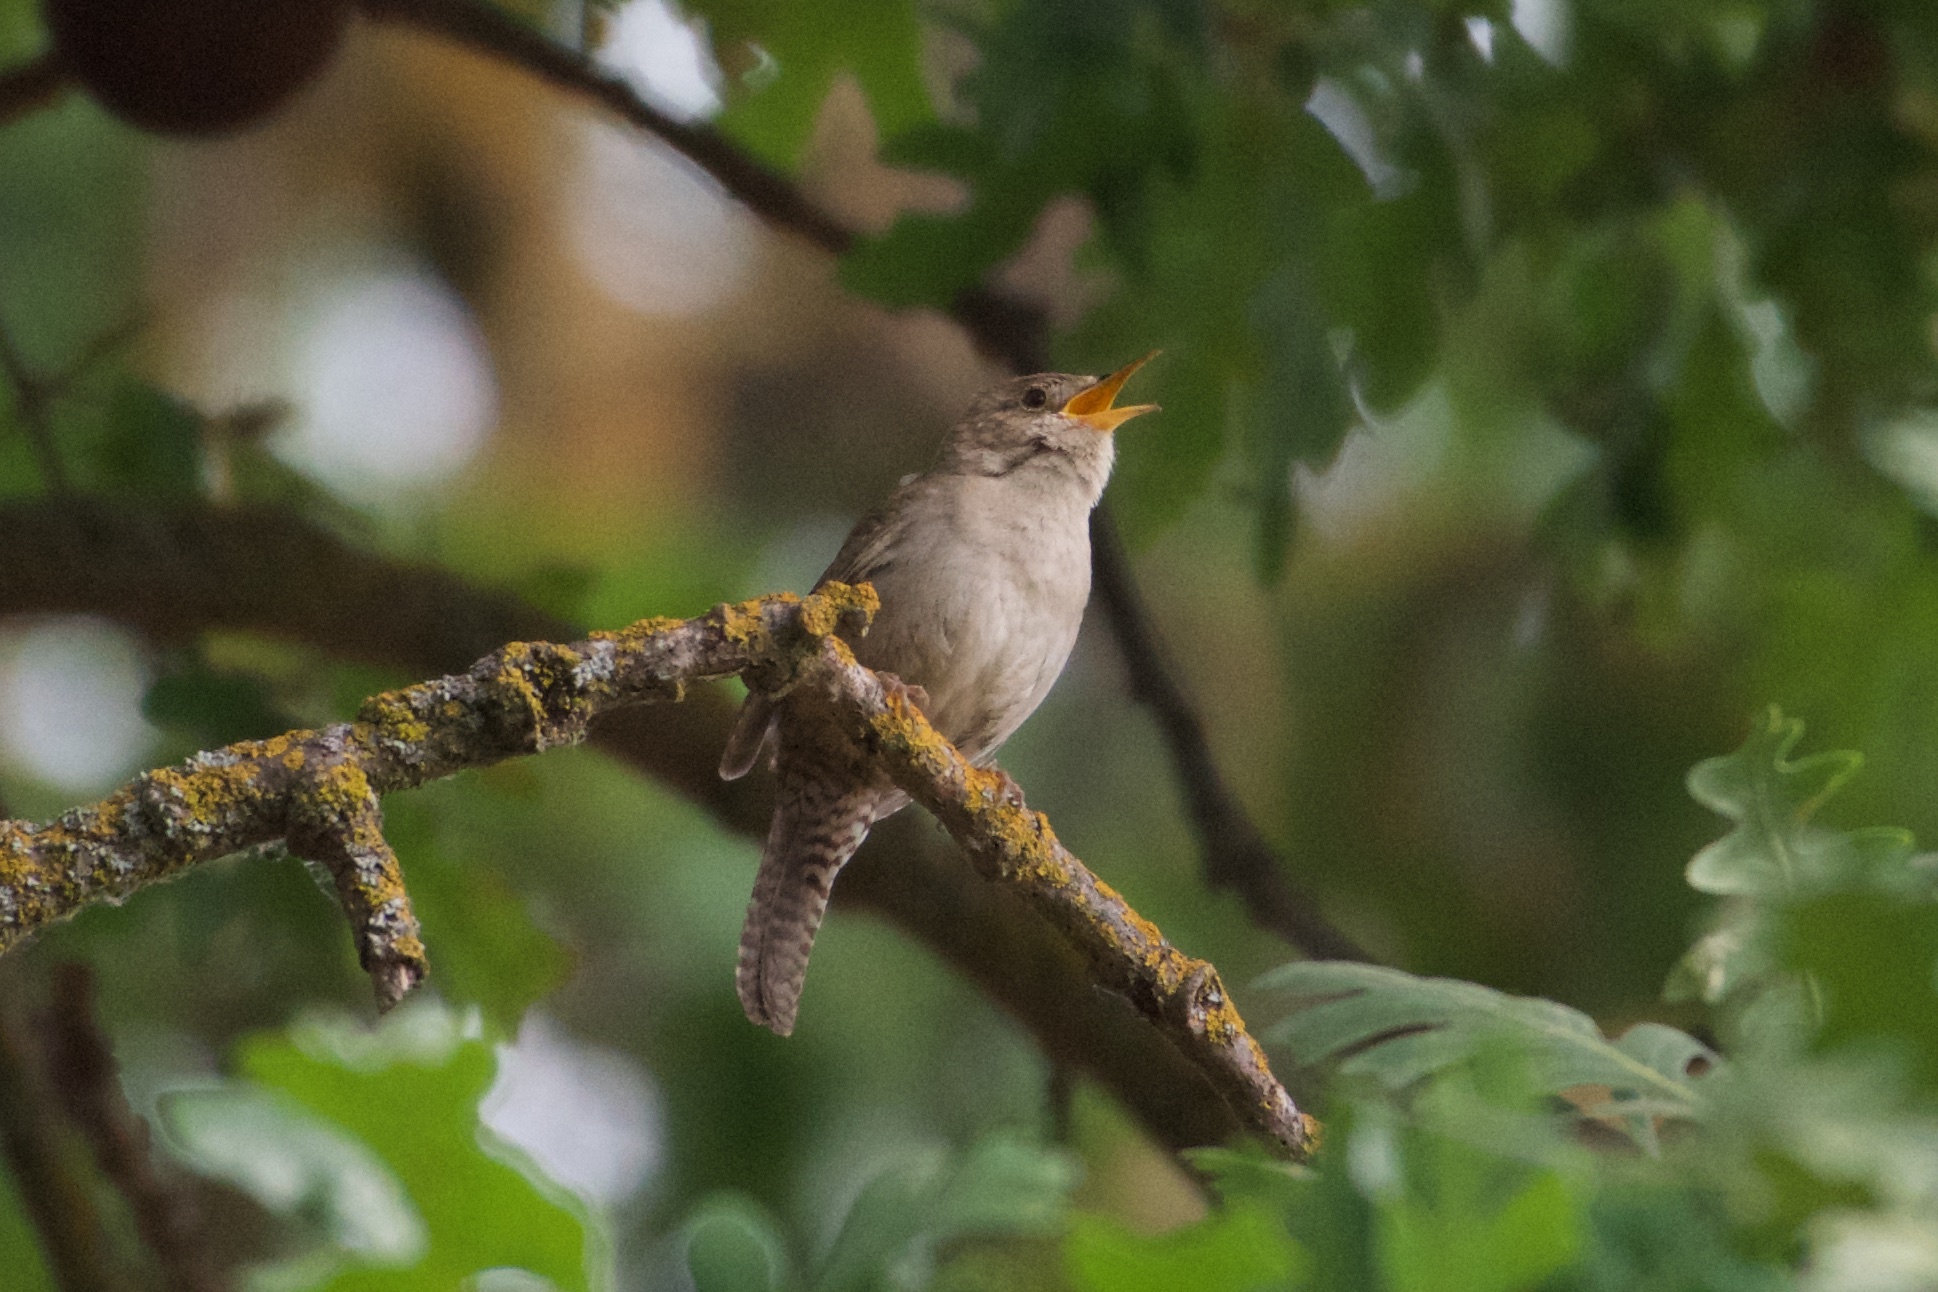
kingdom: Animalia
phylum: Chordata
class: Aves
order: Passeriformes
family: Troglodytidae
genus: Troglodytes
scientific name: Troglodytes aedon
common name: House wren
